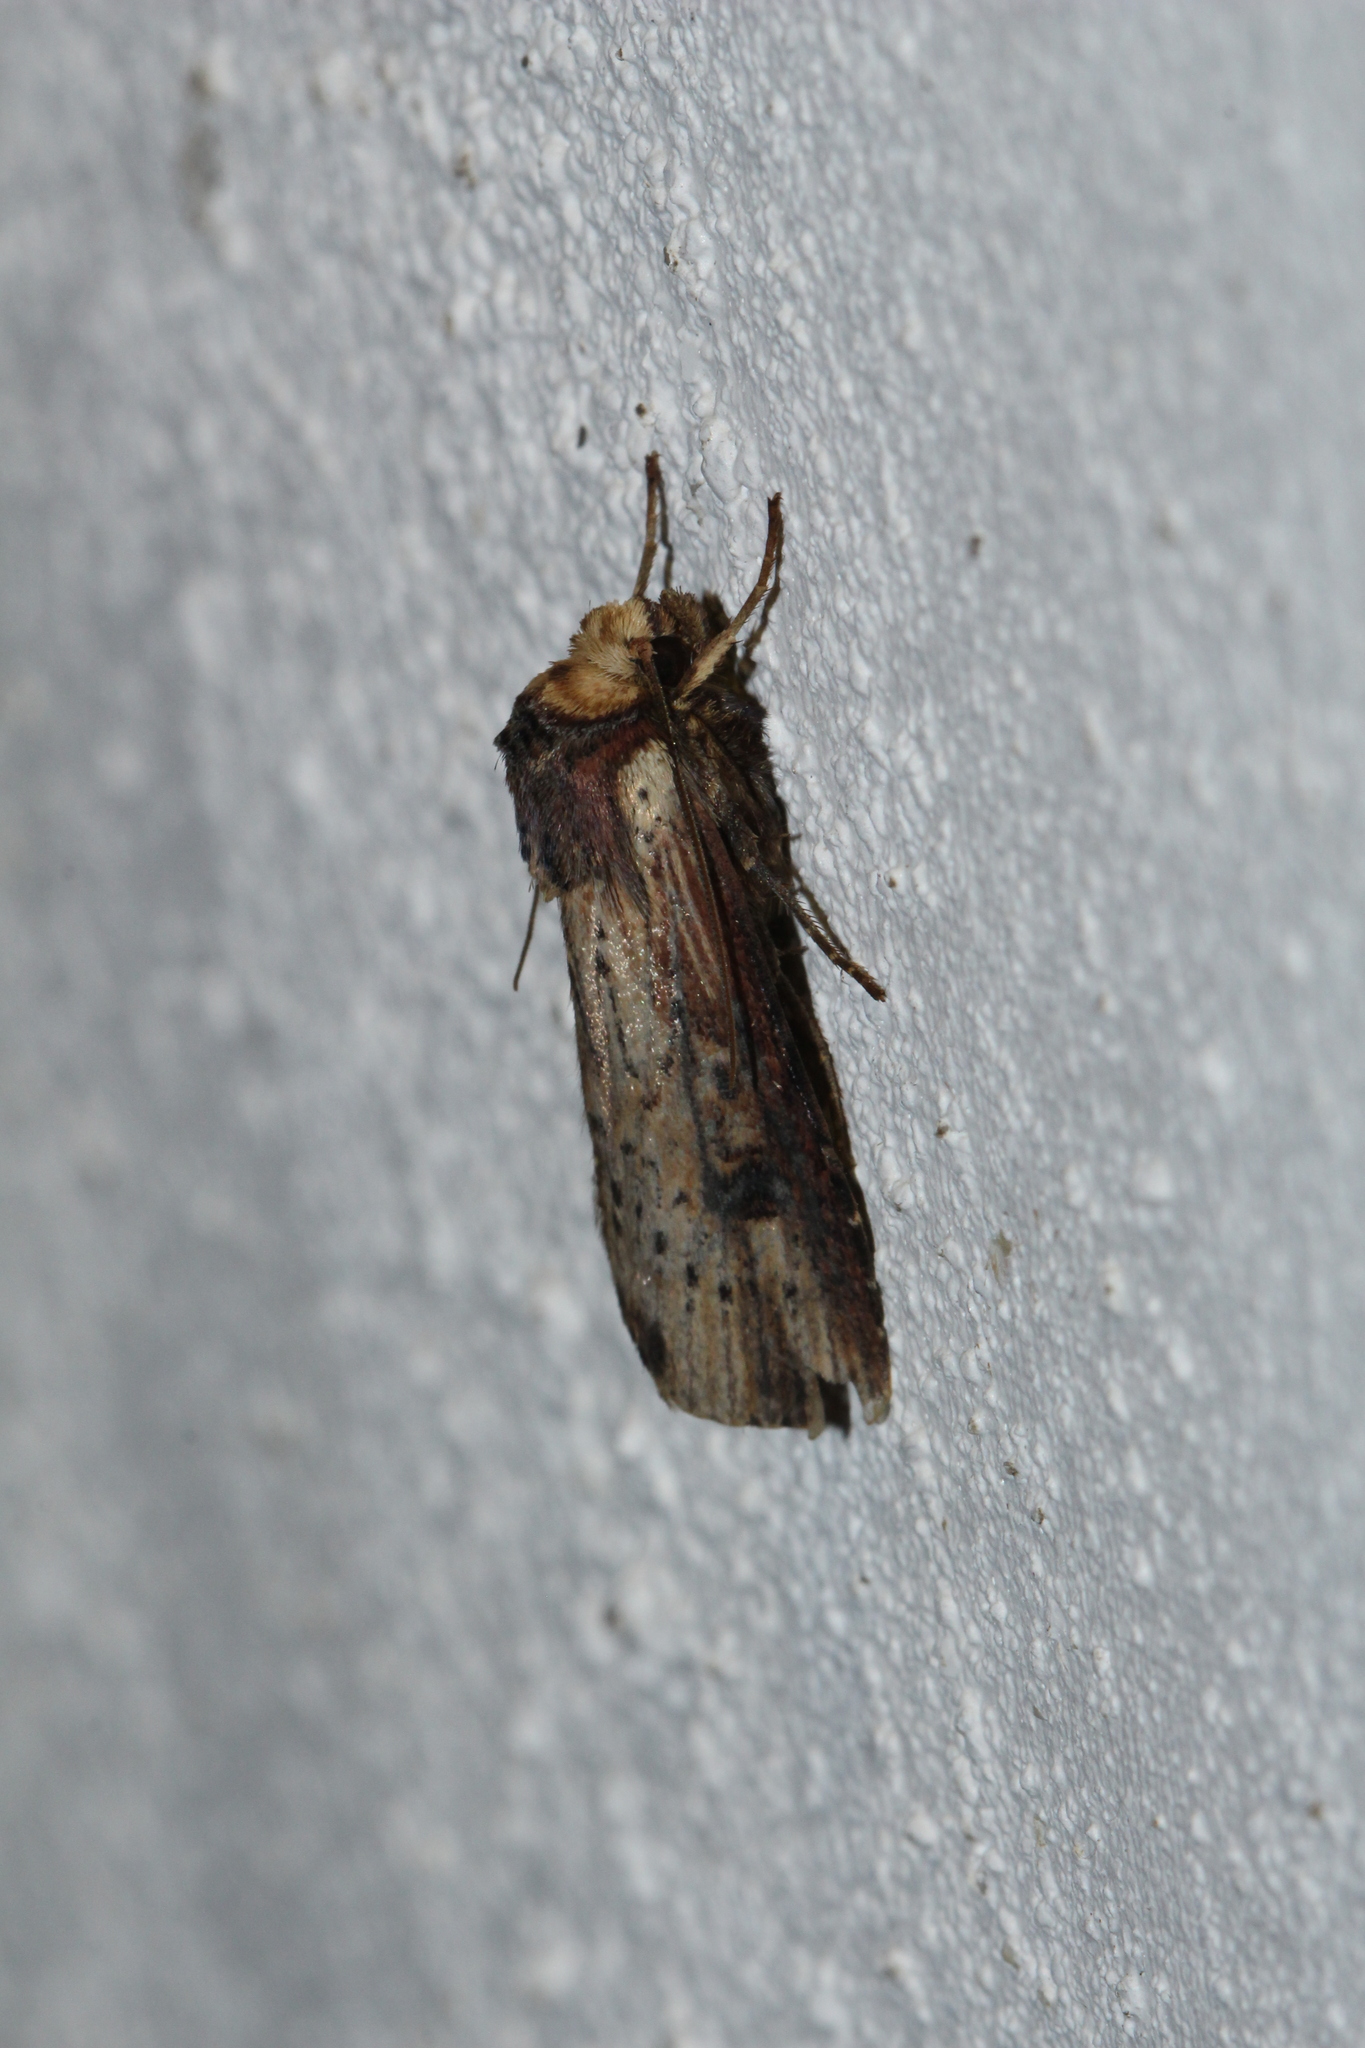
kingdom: Animalia
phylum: Arthropoda
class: Insecta
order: Lepidoptera
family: Noctuidae
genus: Axylia
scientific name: Axylia putris
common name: Flame
